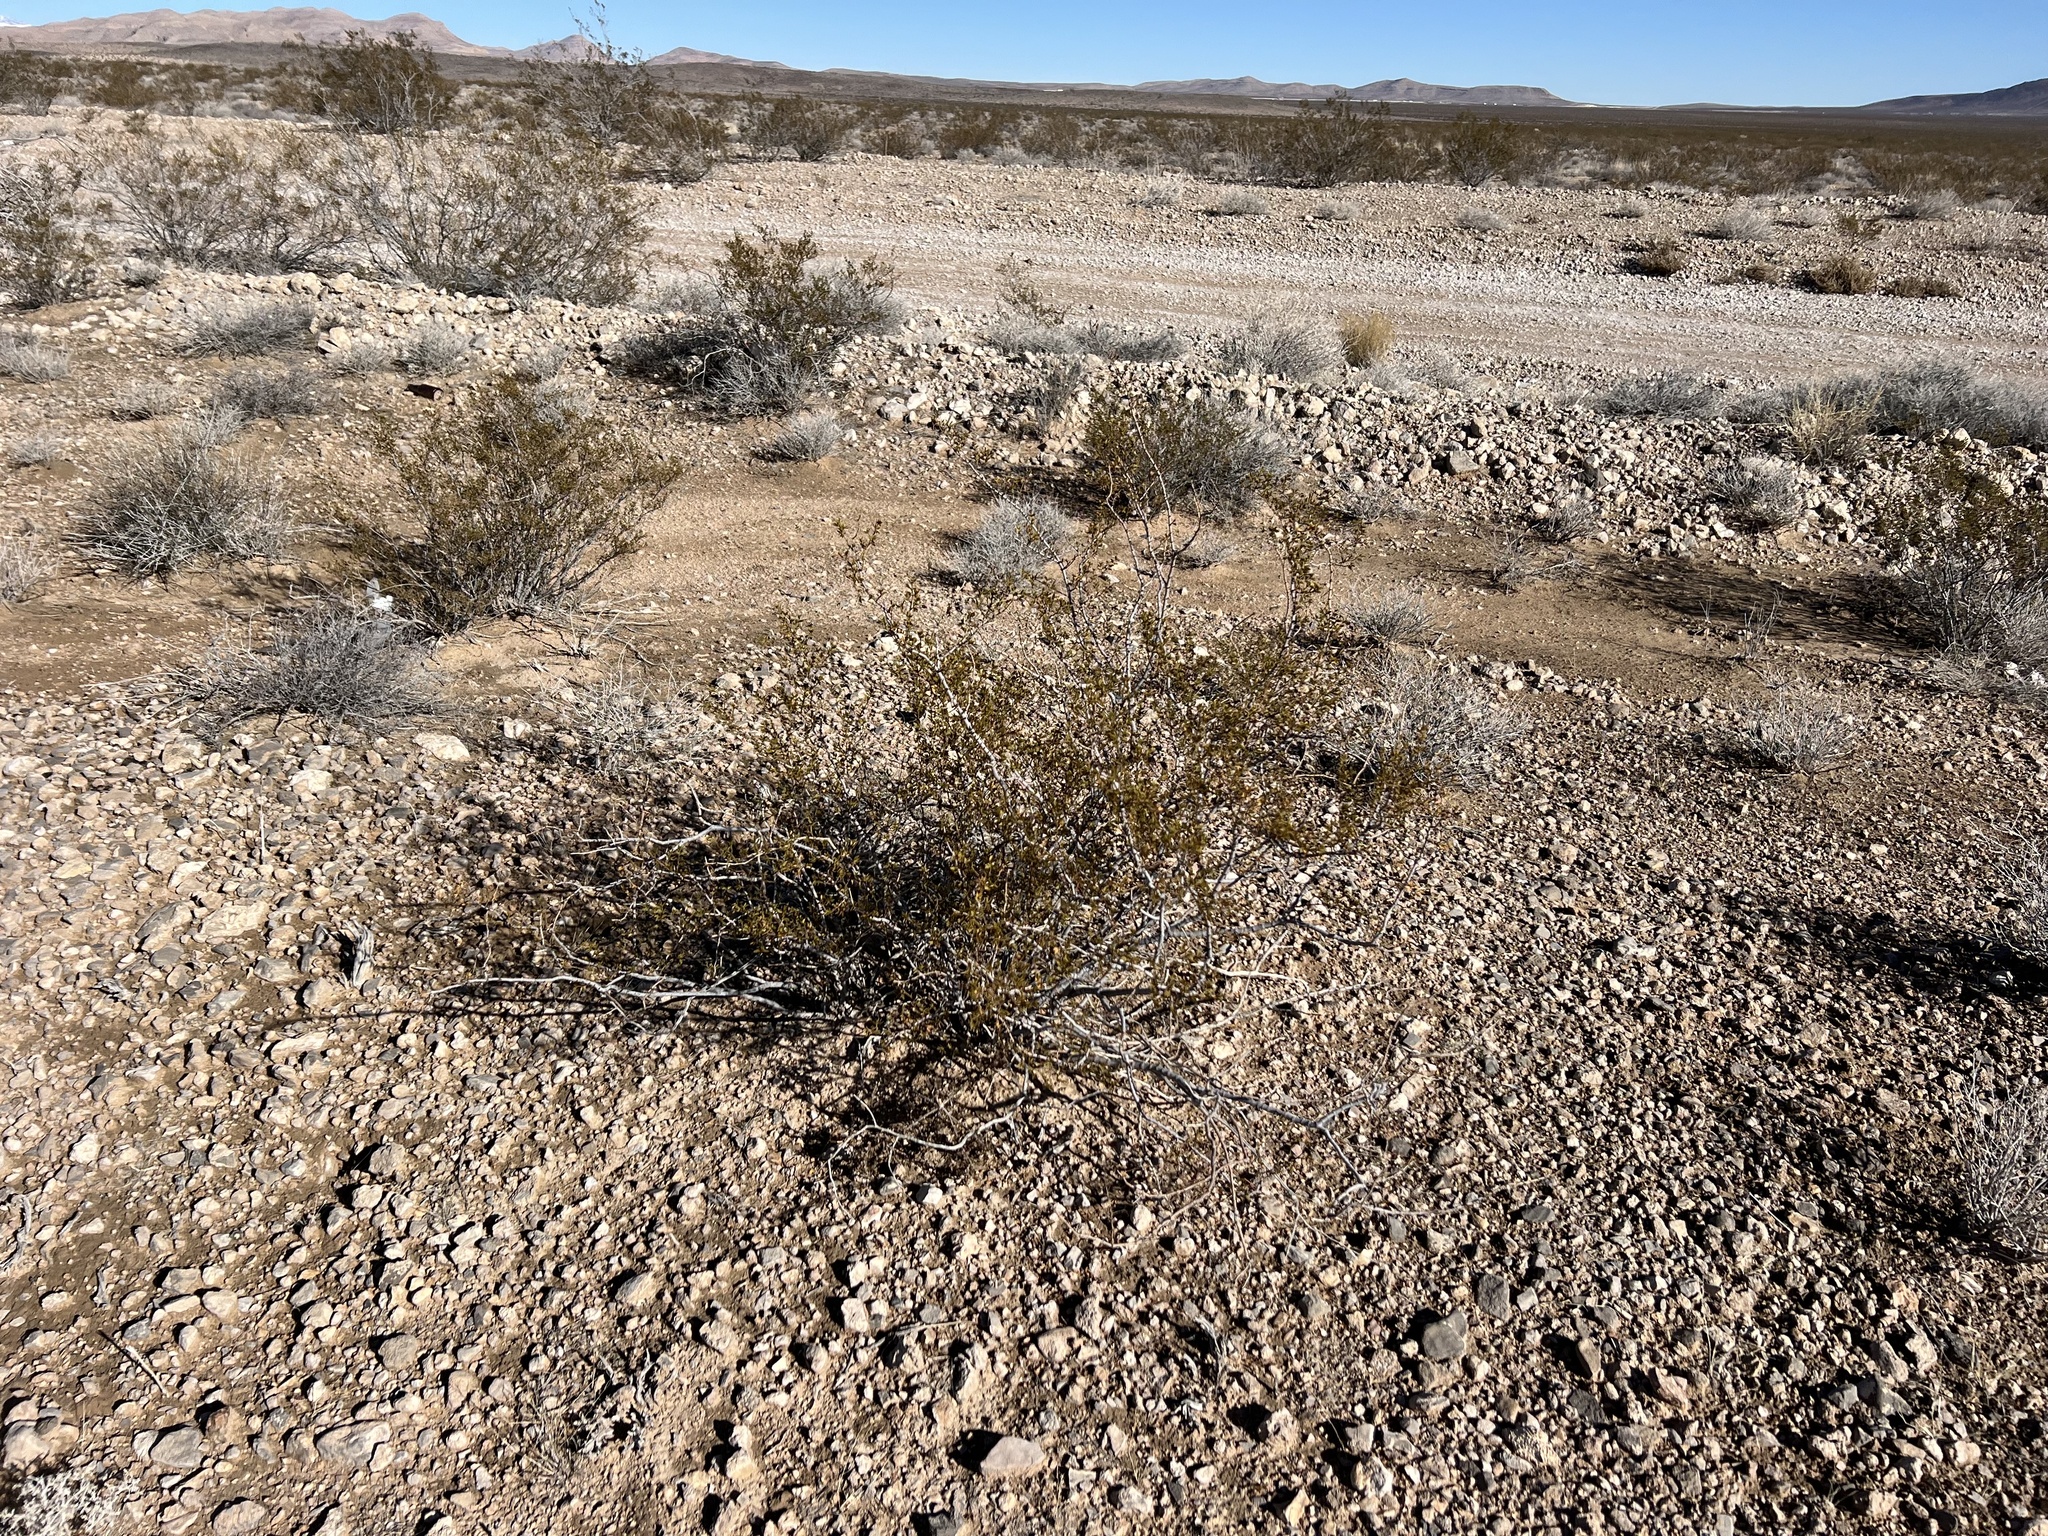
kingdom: Plantae
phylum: Tracheophyta
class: Magnoliopsida
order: Zygophyllales
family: Zygophyllaceae
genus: Larrea
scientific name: Larrea tridentata
